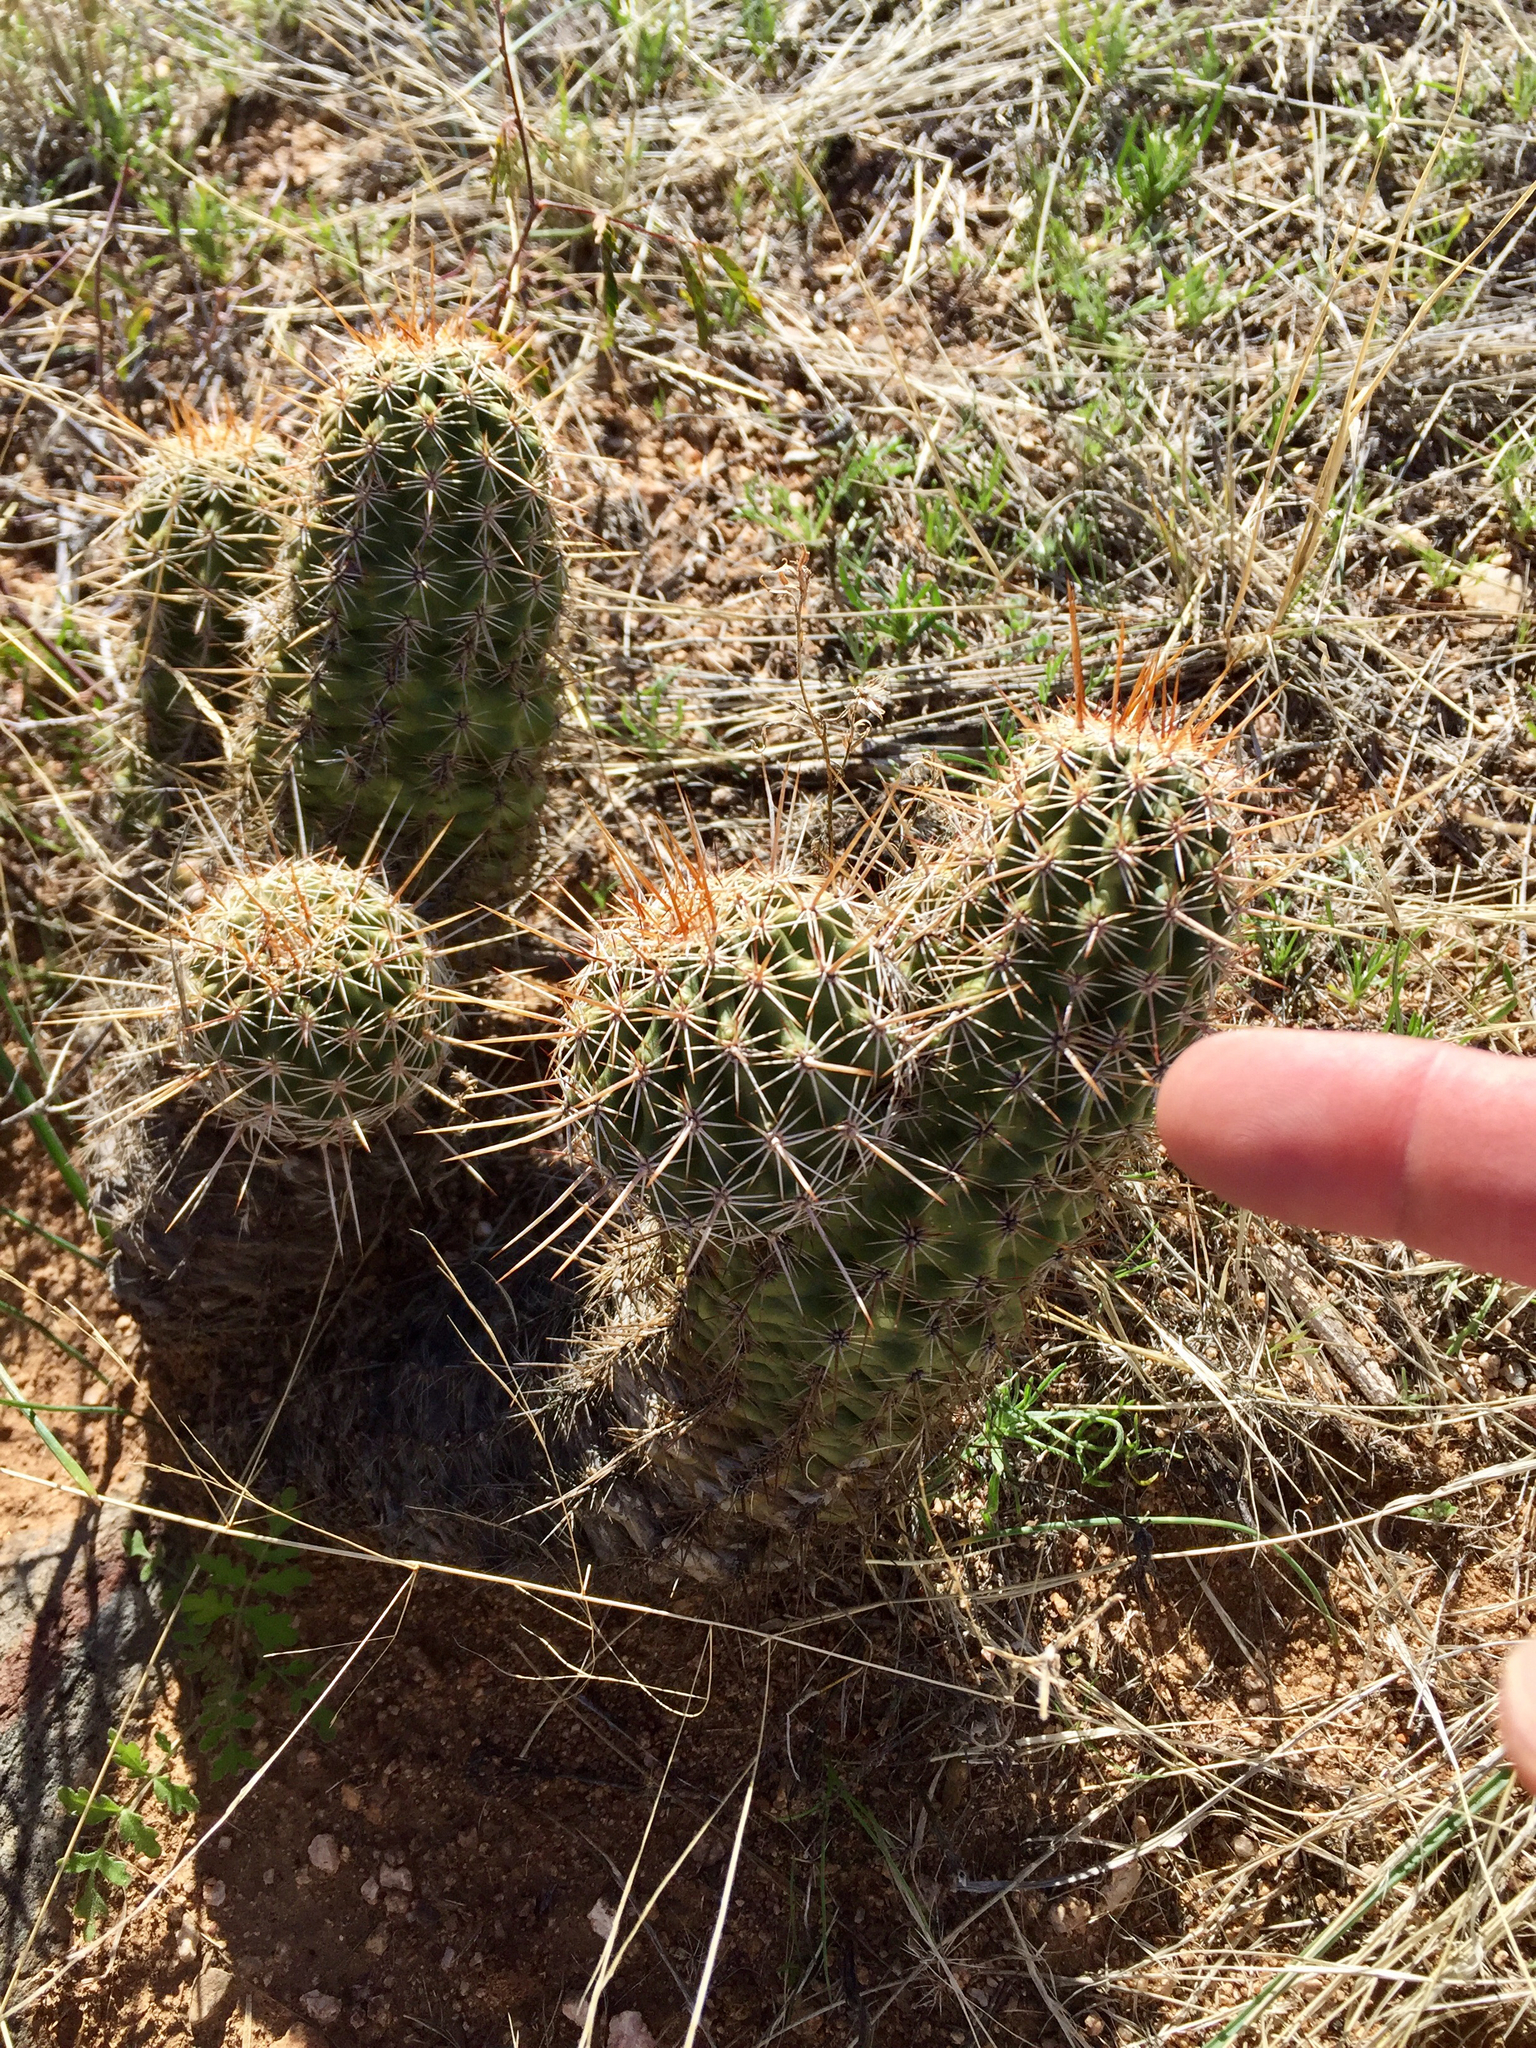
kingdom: Plantae
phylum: Tracheophyta
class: Magnoliopsida
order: Caryophyllales
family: Cactaceae
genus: Echinocereus
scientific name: Echinocereus fasciculatus
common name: Bundle hedgehog
